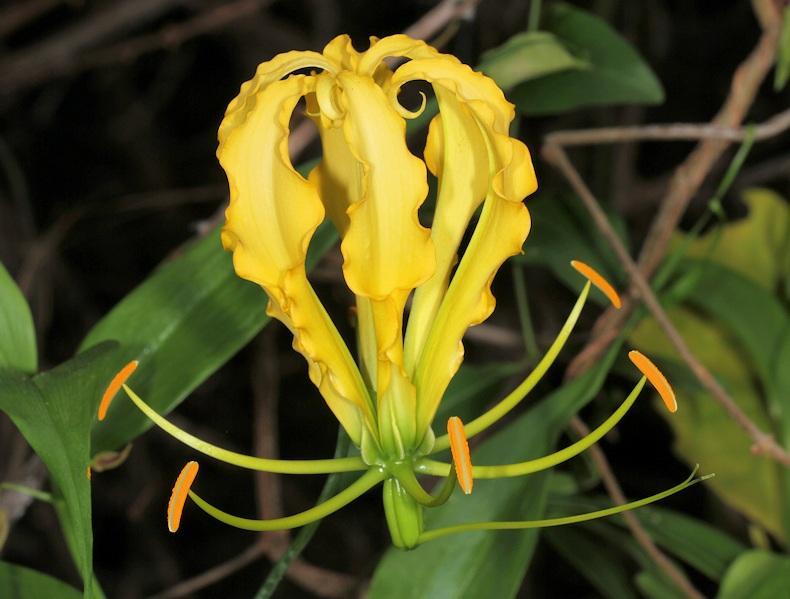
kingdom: Plantae
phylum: Tracheophyta
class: Liliopsida
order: Liliales
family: Colchicaceae
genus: Gloriosa
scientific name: Gloriosa superba
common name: Flame lily
